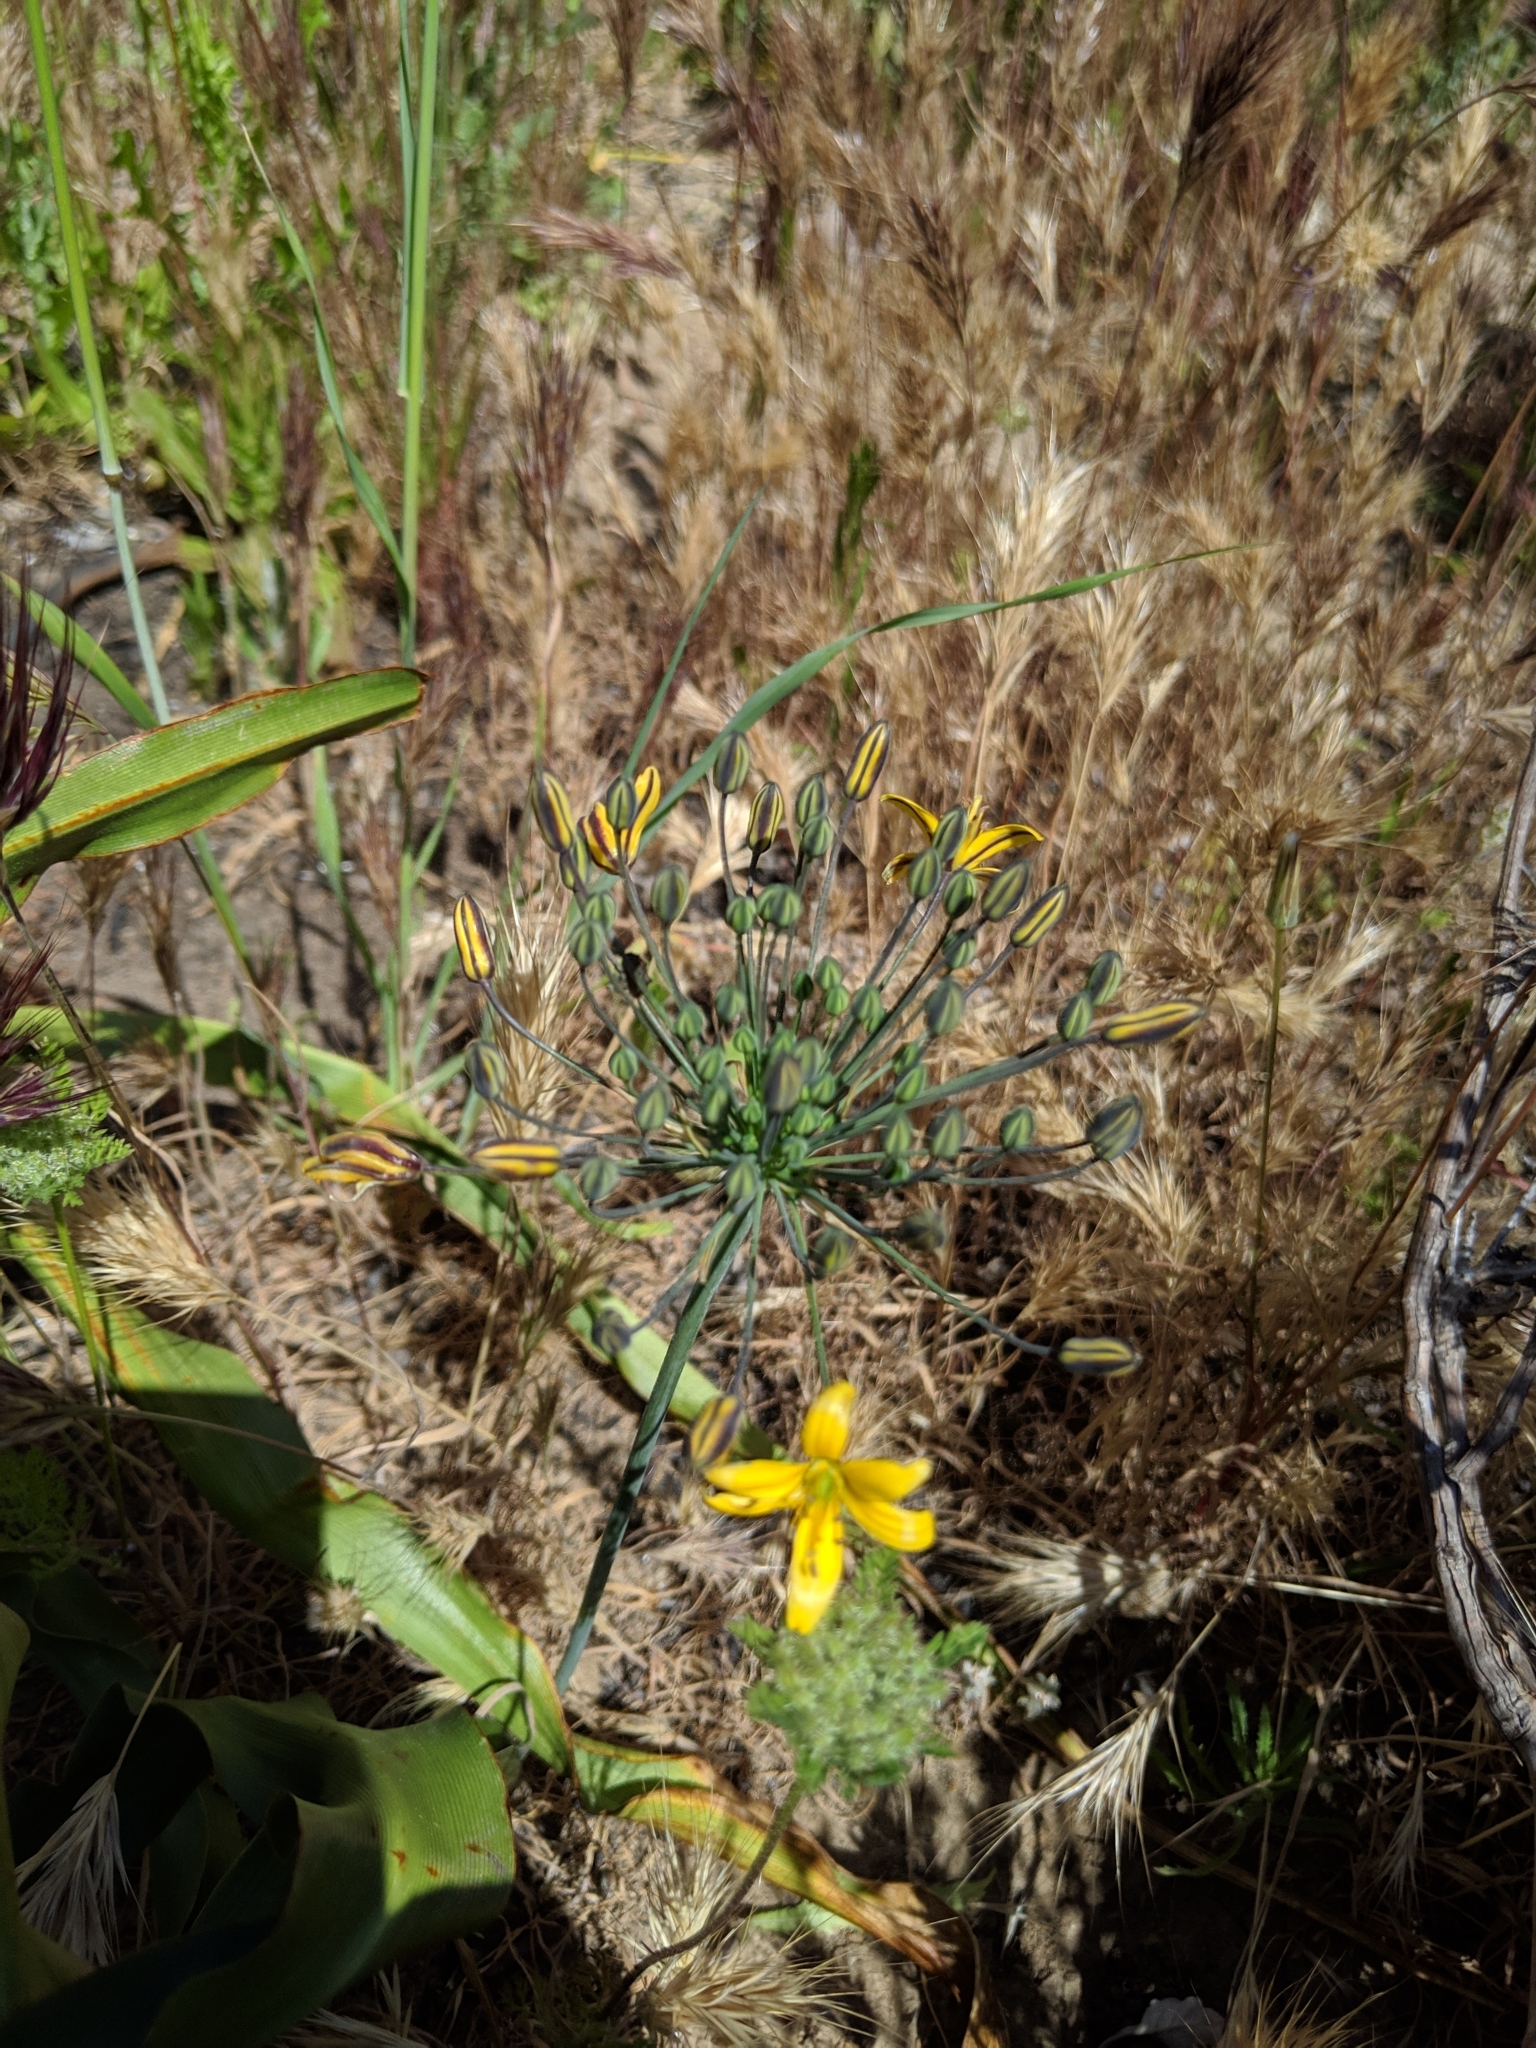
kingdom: Plantae
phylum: Tracheophyta
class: Liliopsida
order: Asparagales
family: Asparagaceae
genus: Bloomeria
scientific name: Bloomeria crocea
